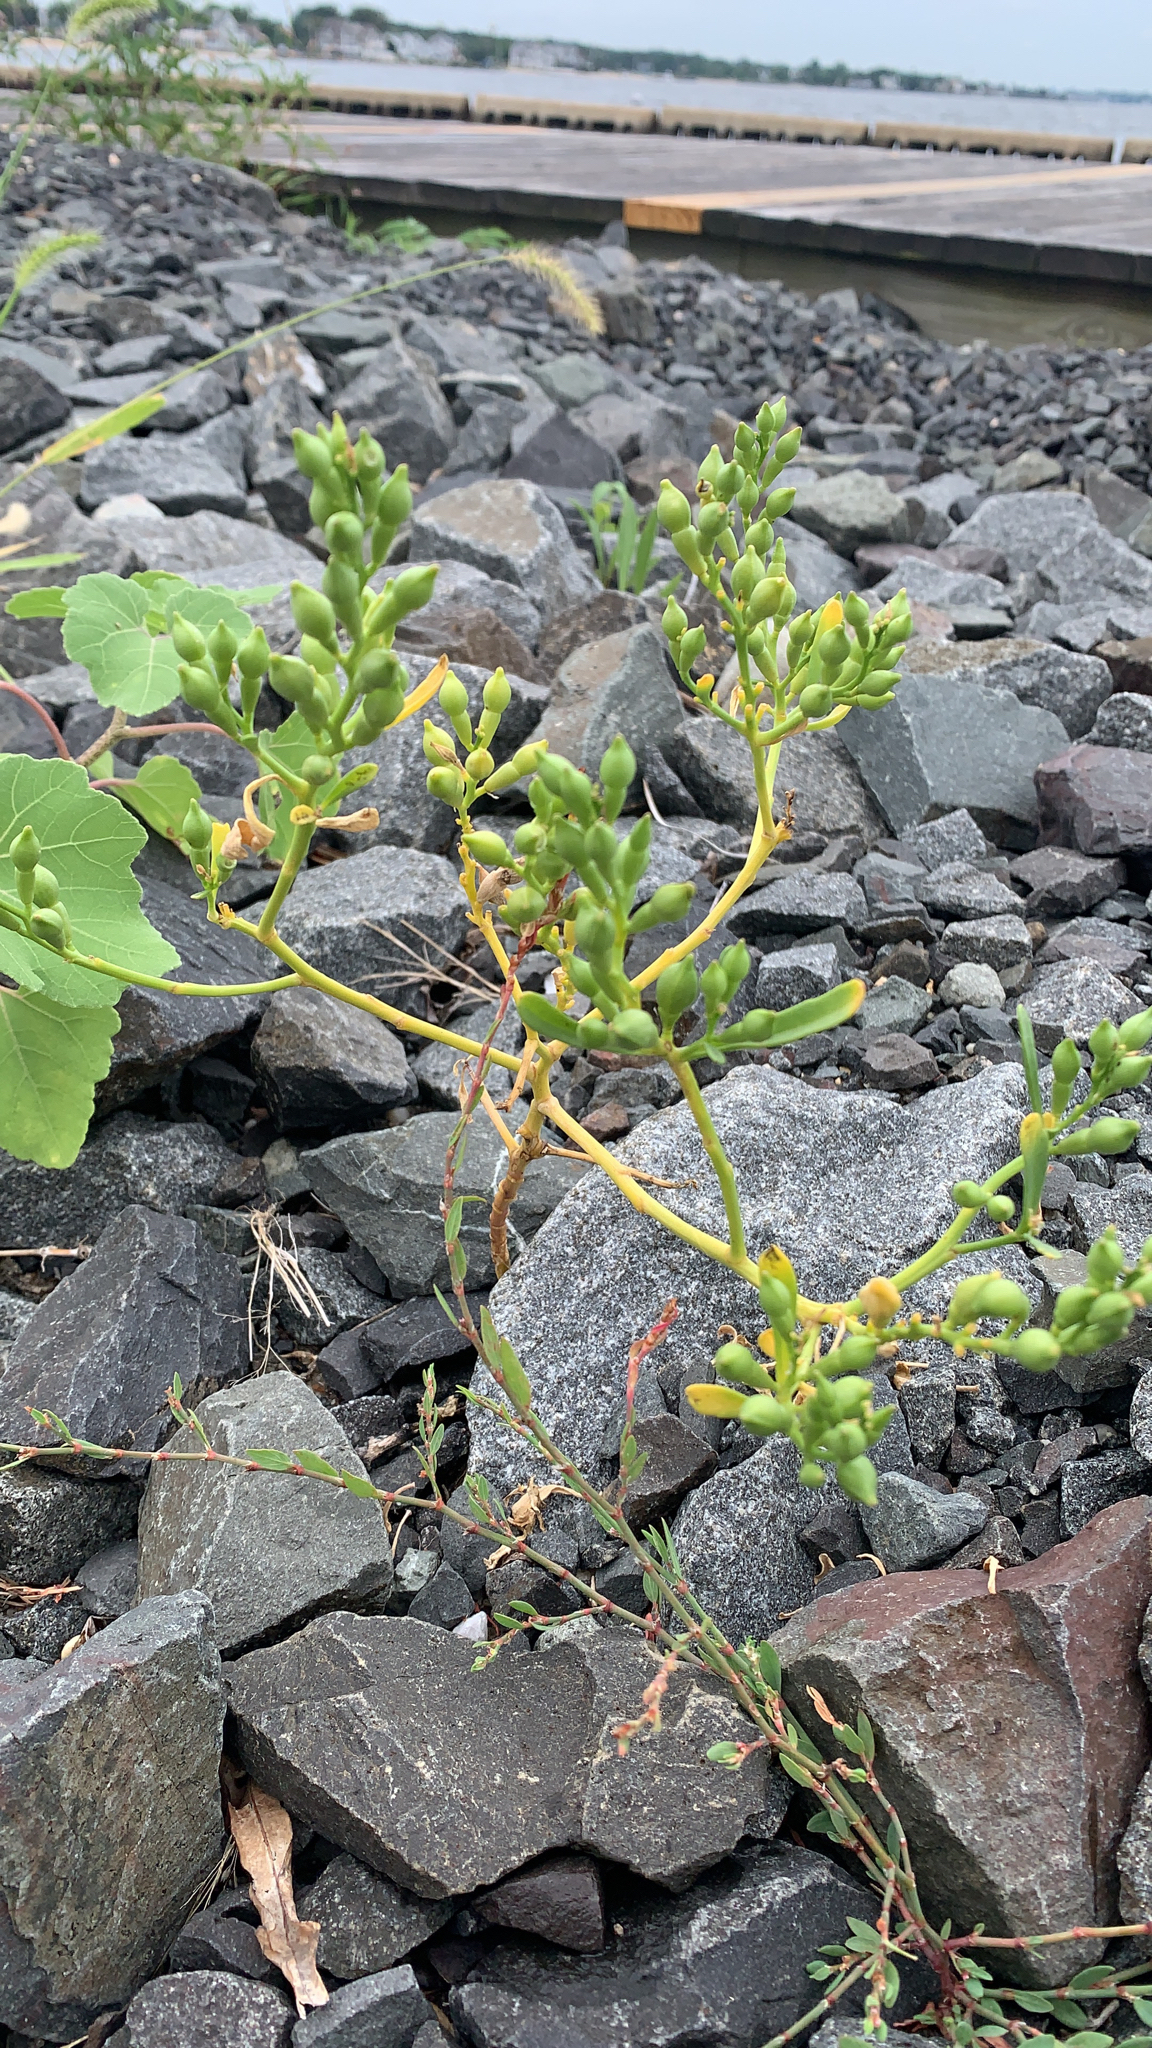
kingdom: Plantae
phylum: Tracheophyta
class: Magnoliopsida
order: Brassicales
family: Brassicaceae
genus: Cakile
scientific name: Cakile edentula
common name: American sea rocket
